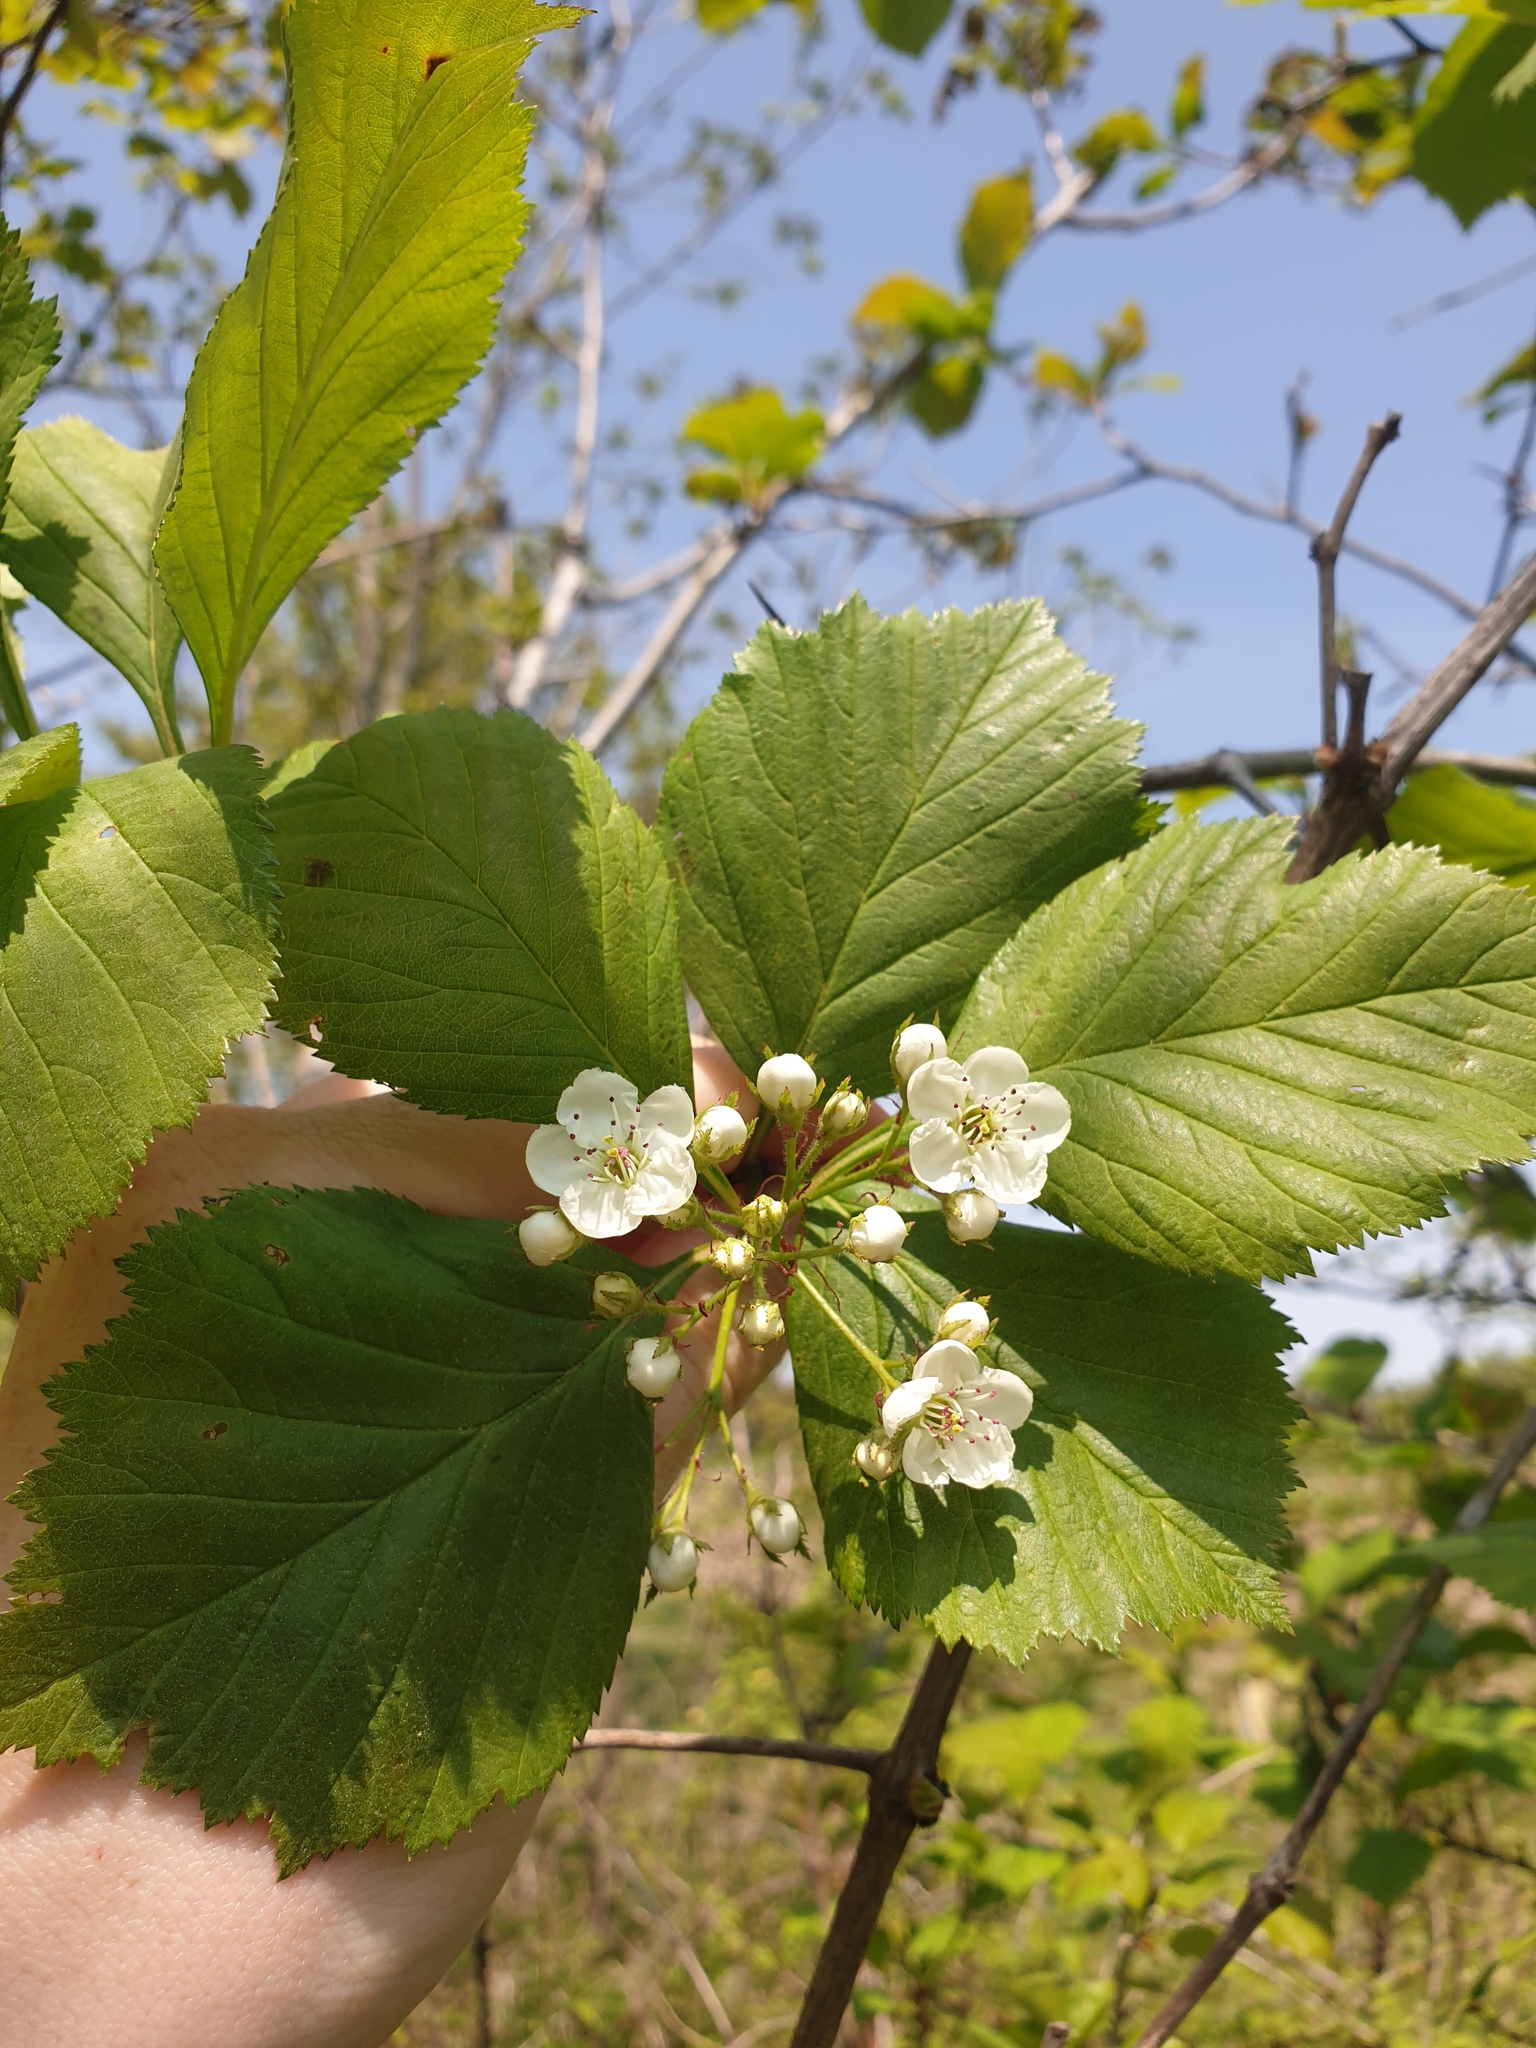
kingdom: Plantae
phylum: Tracheophyta
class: Magnoliopsida
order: Rosales
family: Rosaceae
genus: Crataegus
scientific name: Crataegus succulenta
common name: Fleshy hawthorn
